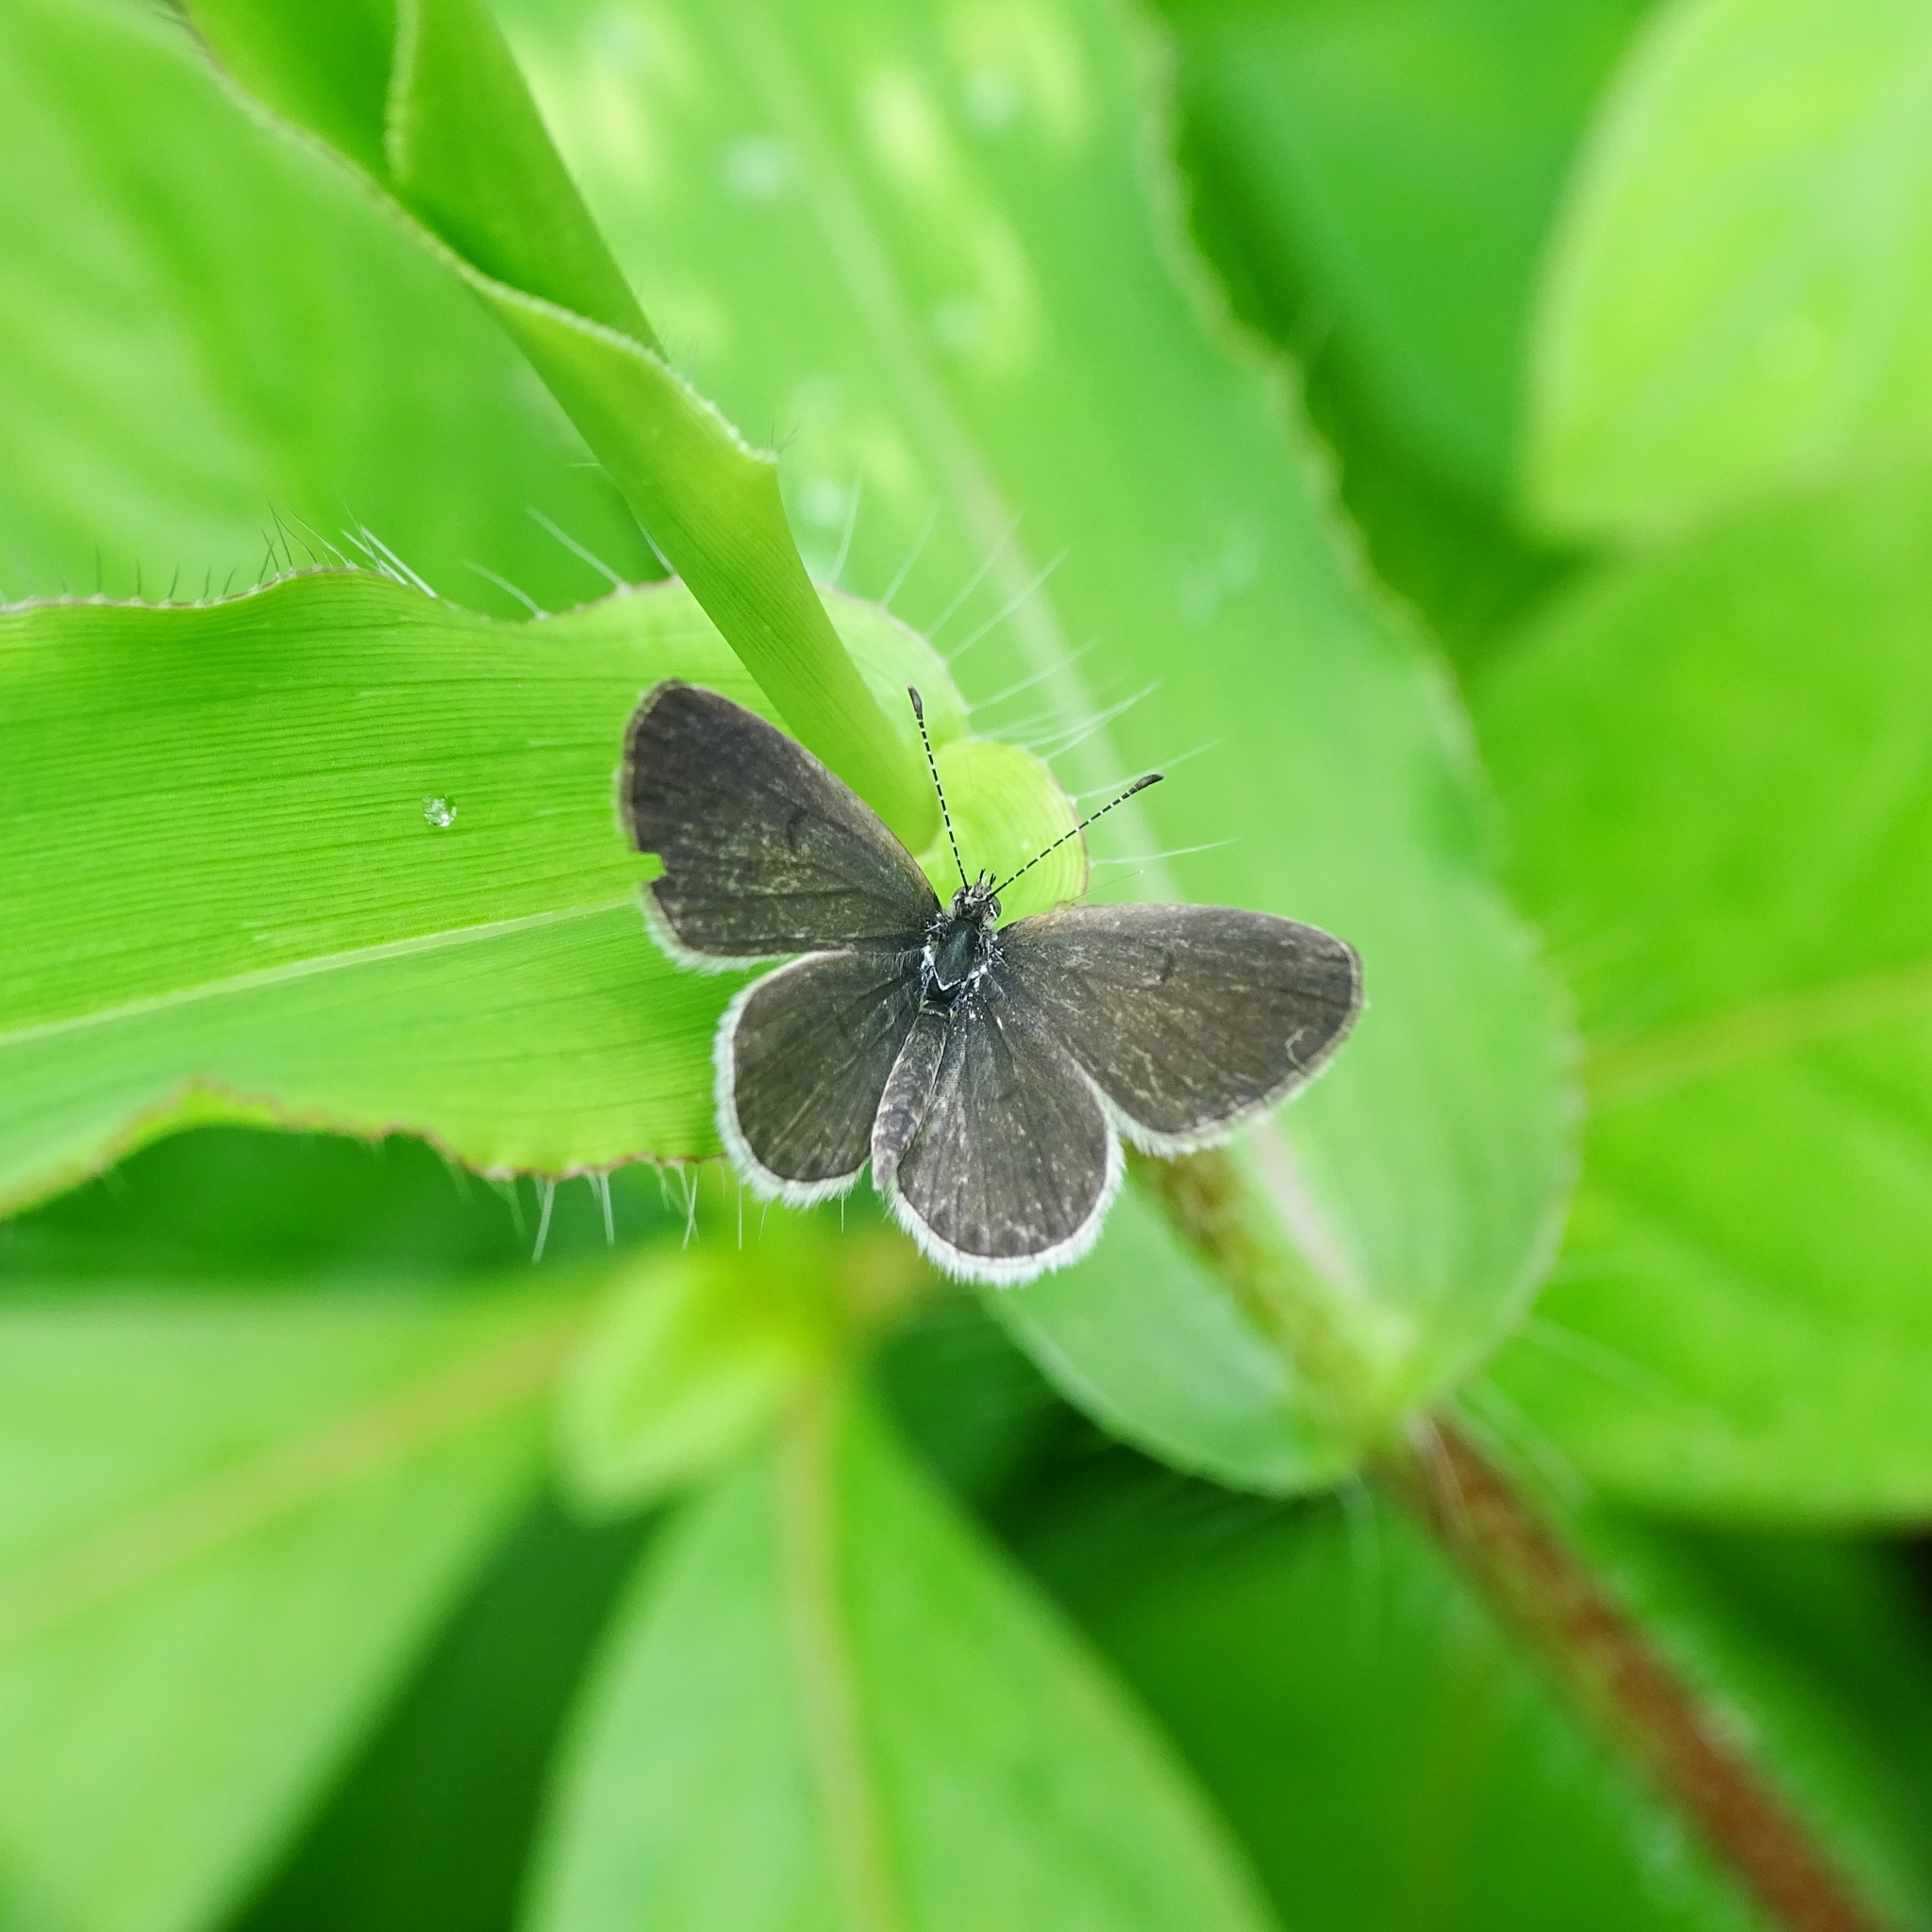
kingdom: Animalia
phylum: Arthropoda
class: Insecta
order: Lepidoptera
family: Lycaenidae
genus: Zizula
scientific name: Zizula hylax
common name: Gaika blue
